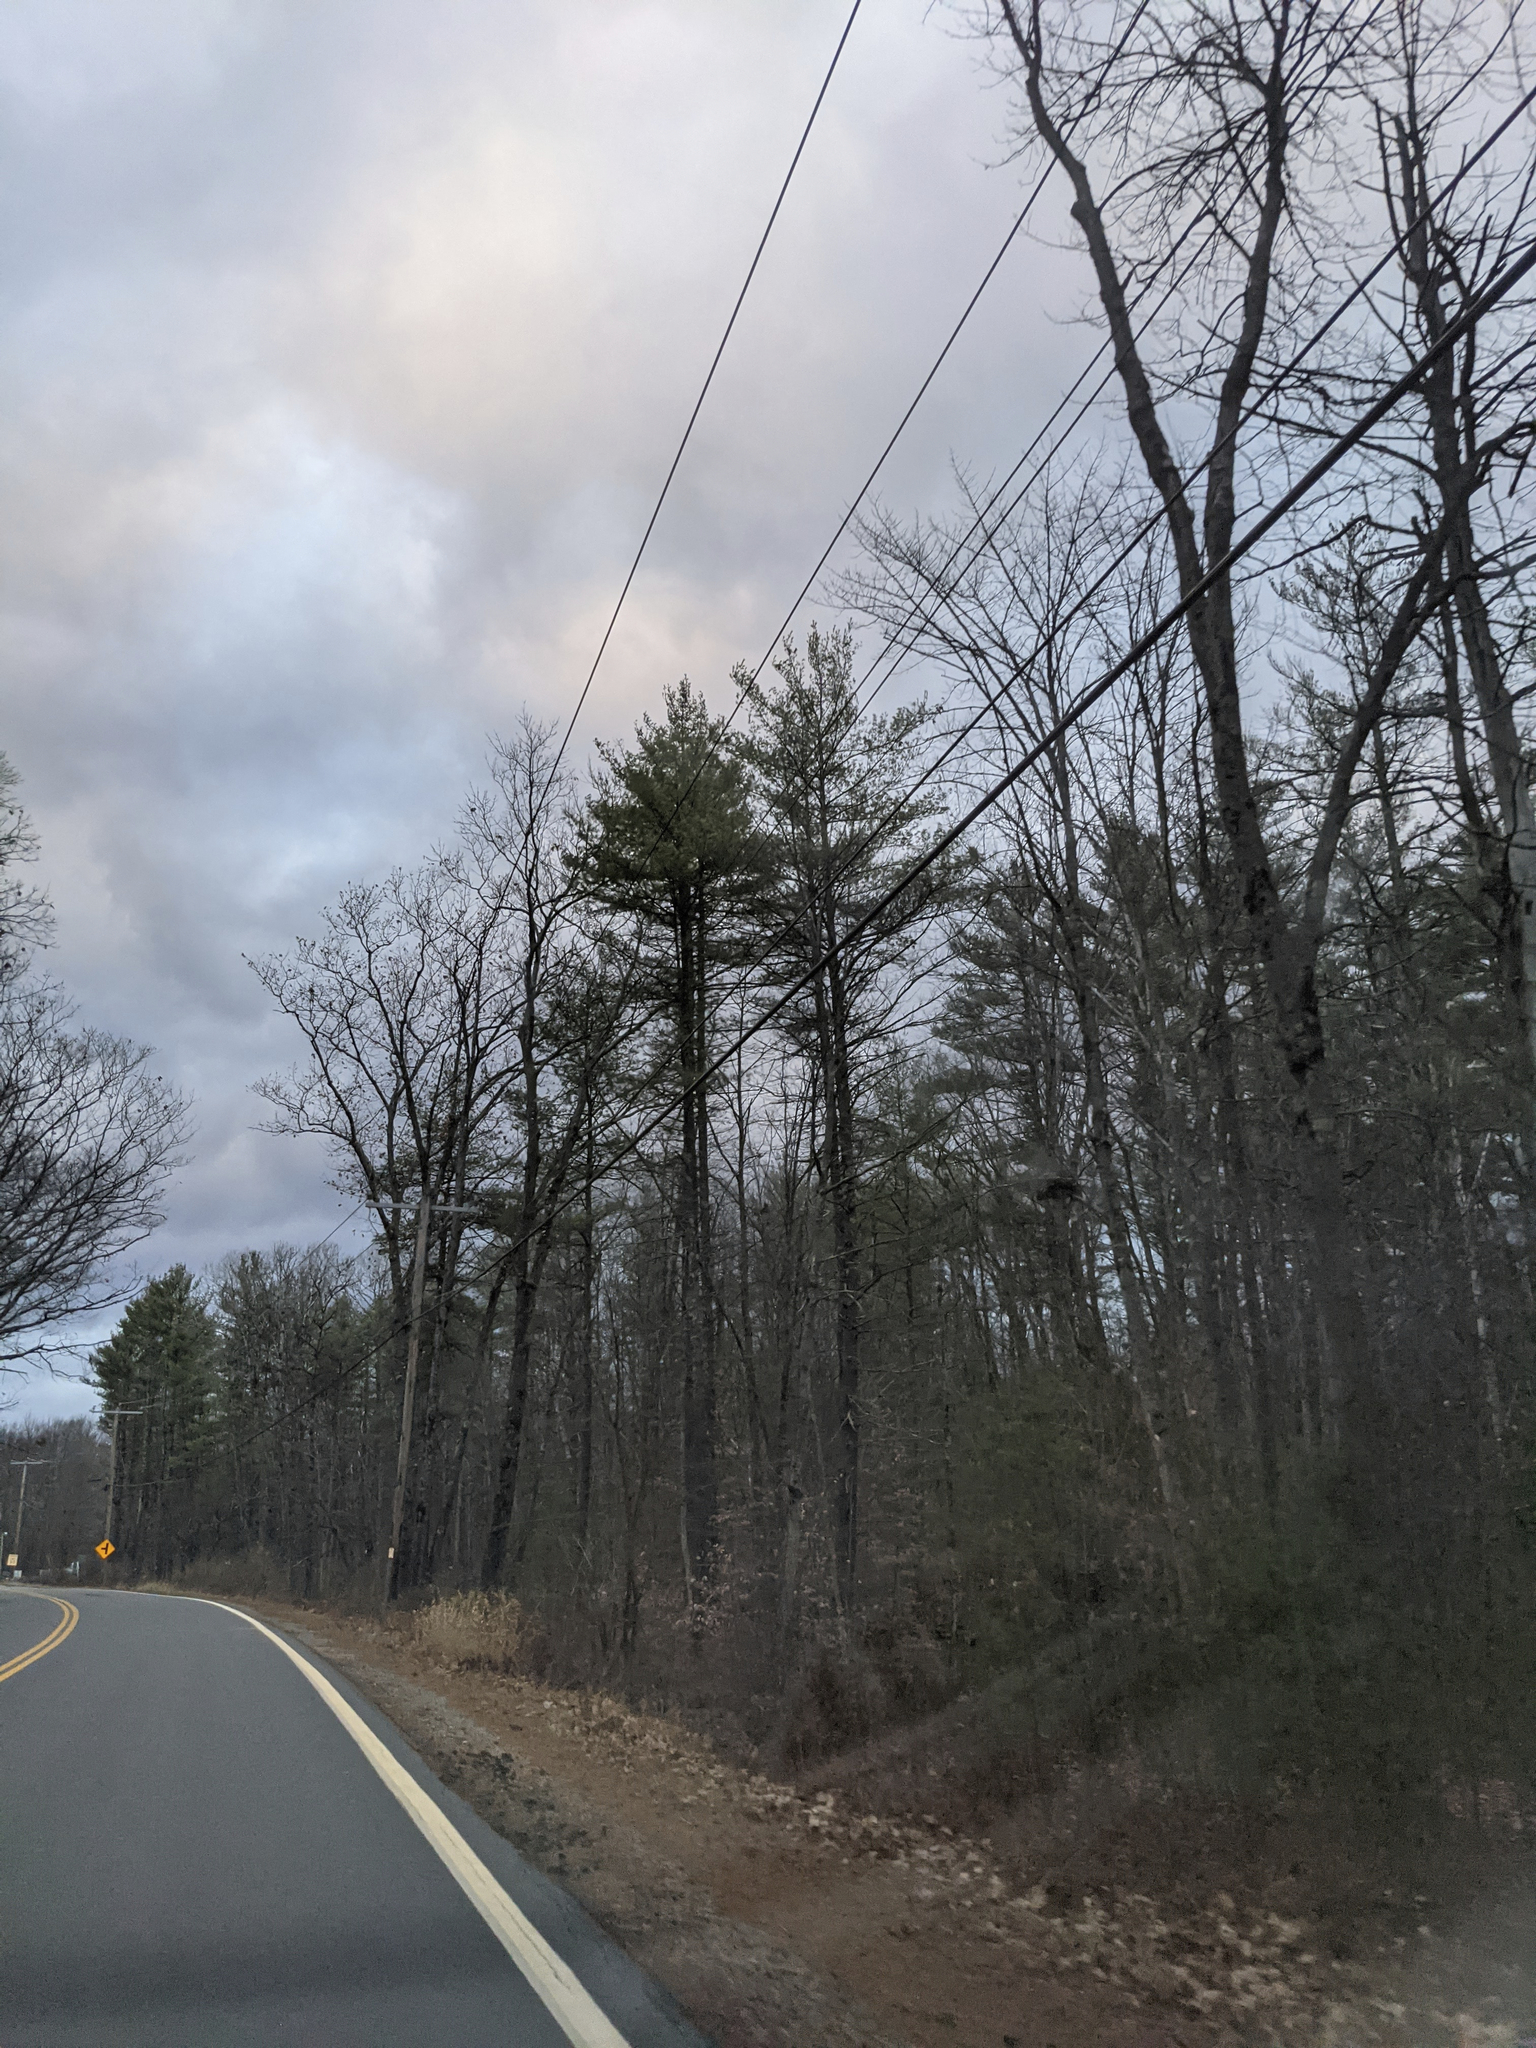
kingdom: Plantae
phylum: Tracheophyta
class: Pinopsida
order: Pinales
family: Pinaceae
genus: Pinus
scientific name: Pinus strobus
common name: Weymouth pine
